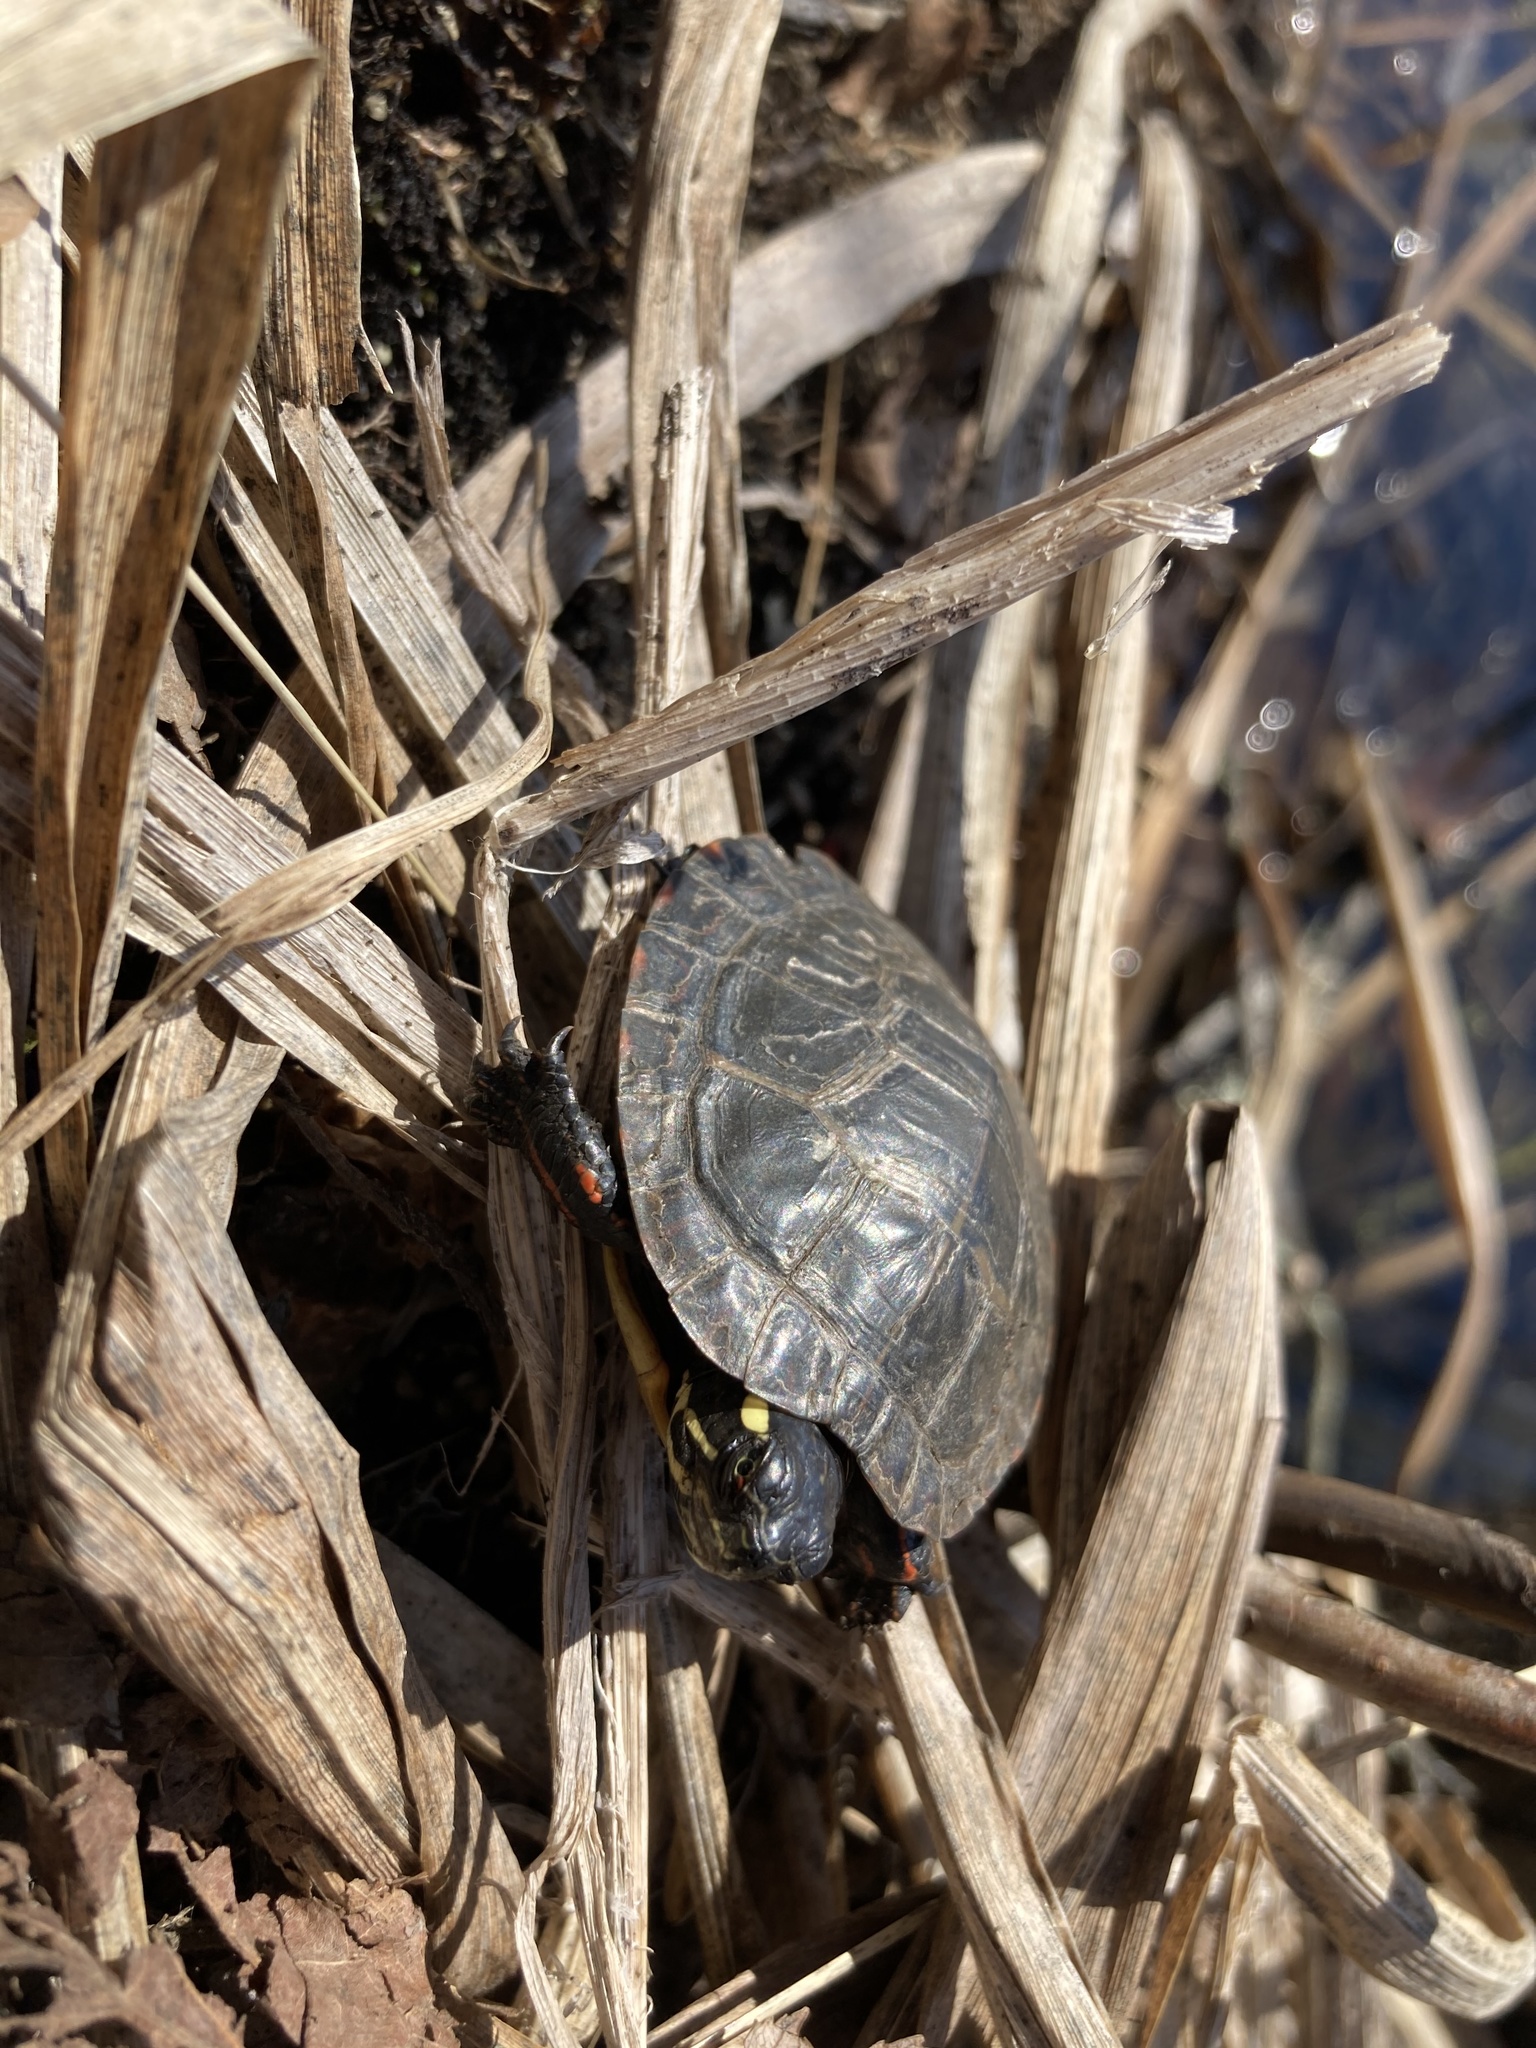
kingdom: Animalia
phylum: Chordata
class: Testudines
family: Emydidae
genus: Chrysemys
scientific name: Chrysemys picta
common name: Painted turtle
